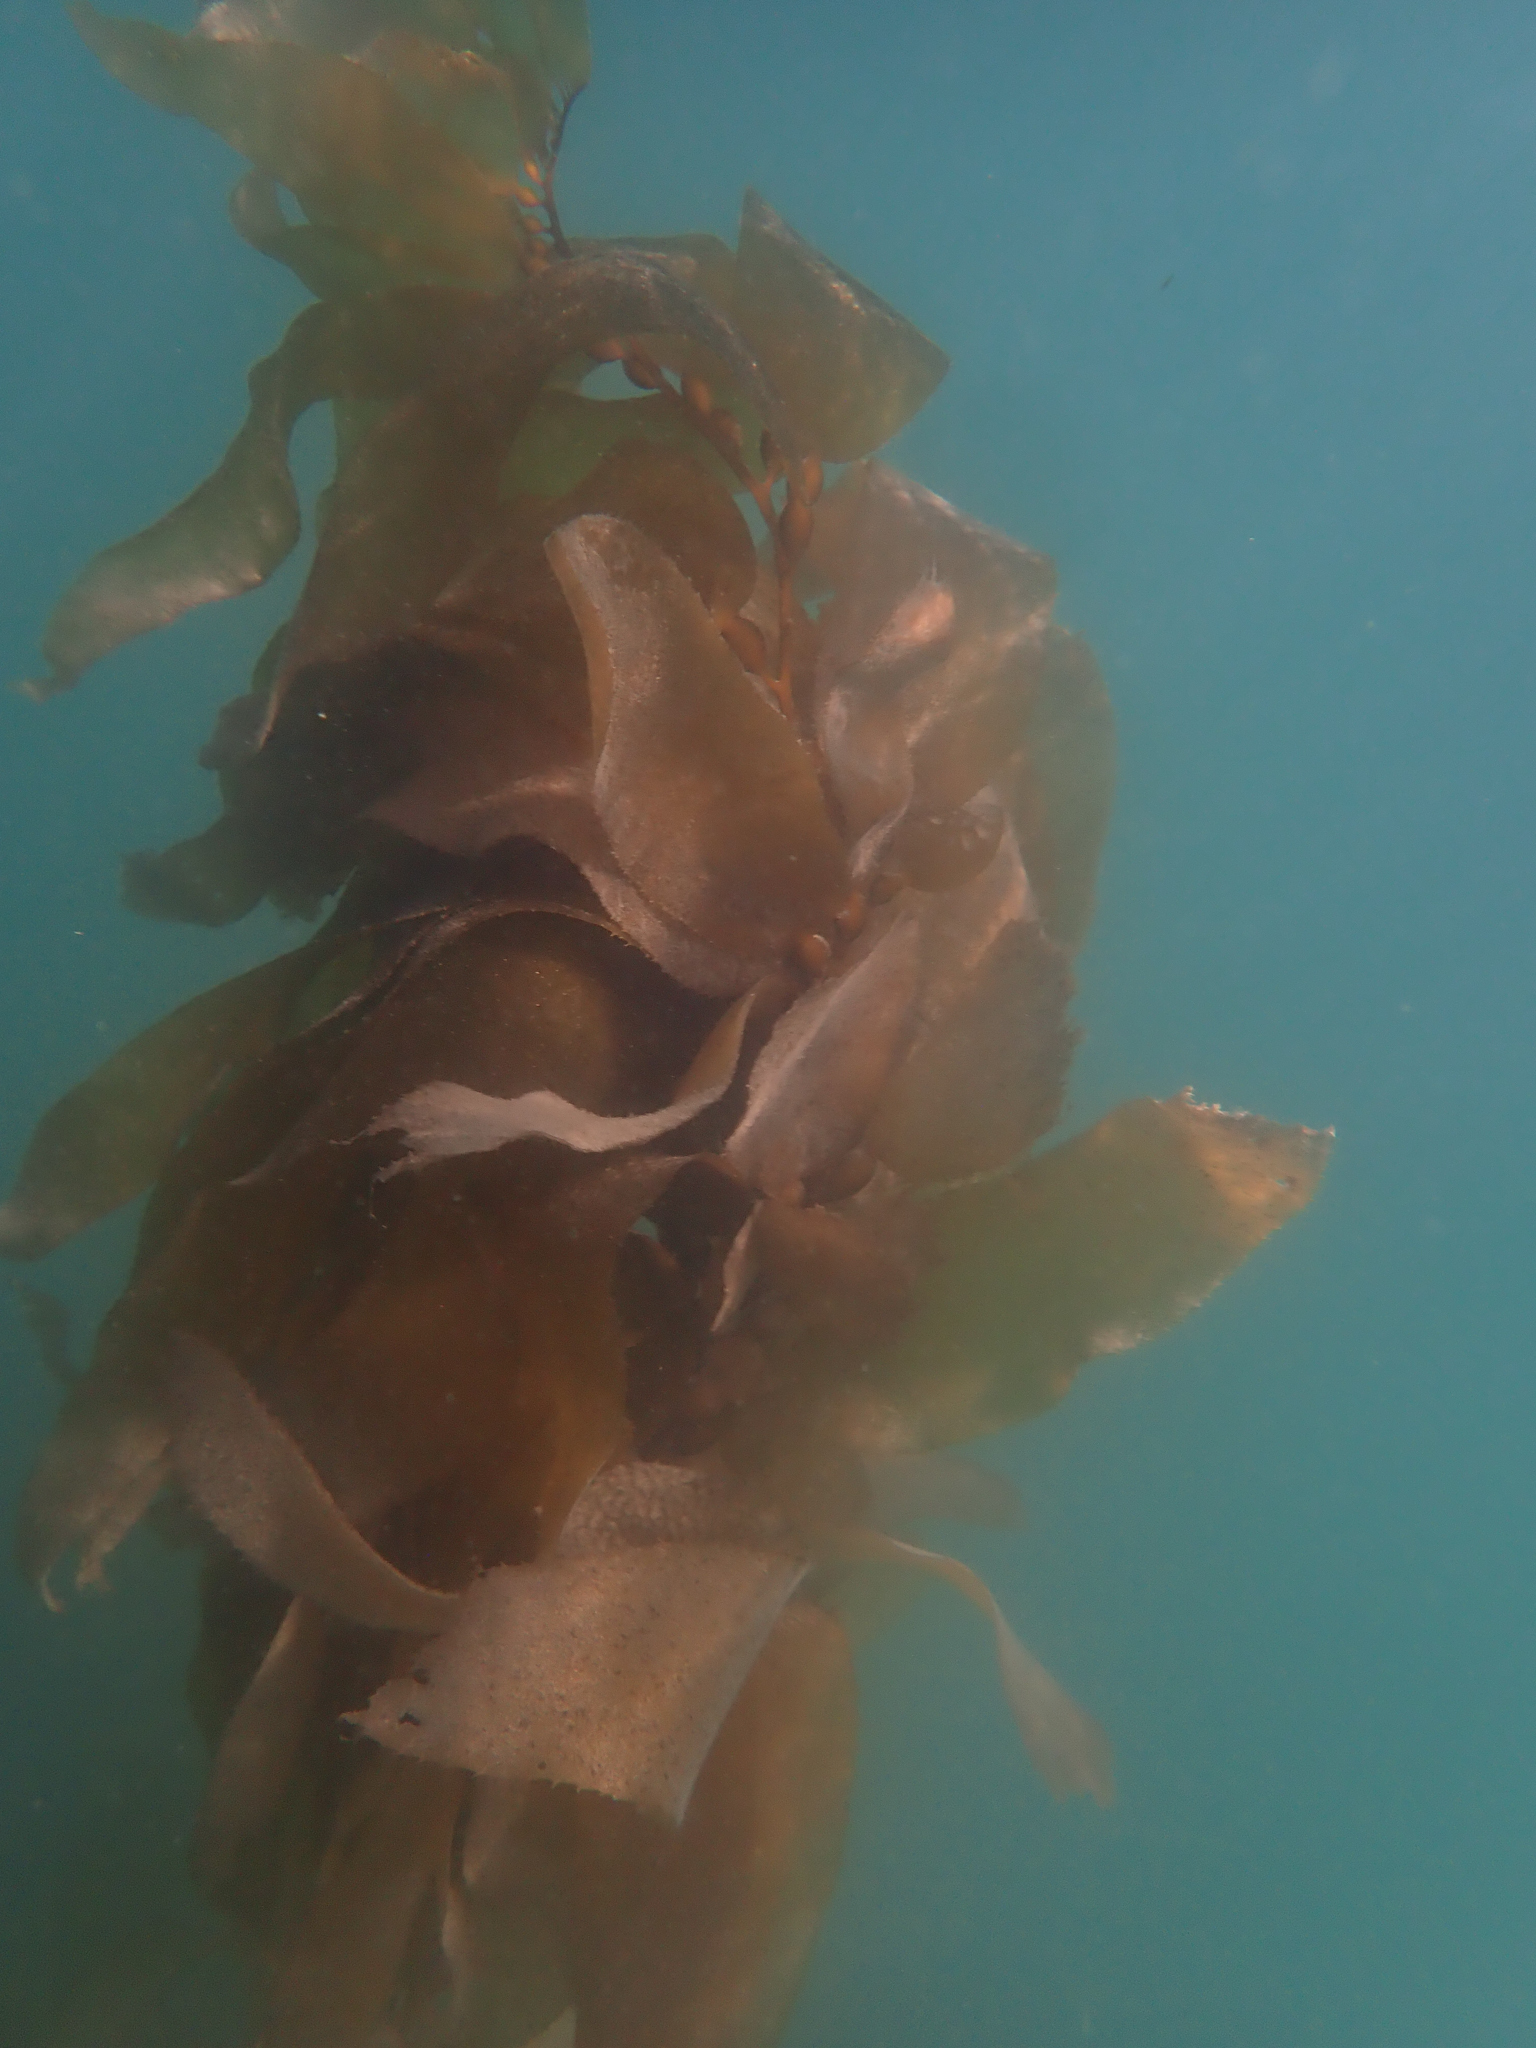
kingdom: Chromista
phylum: Ochrophyta
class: Phaeophyceae
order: Laminariales
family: Laminariaceae
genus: Macrocystis
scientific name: Macrocystis pyrifera
